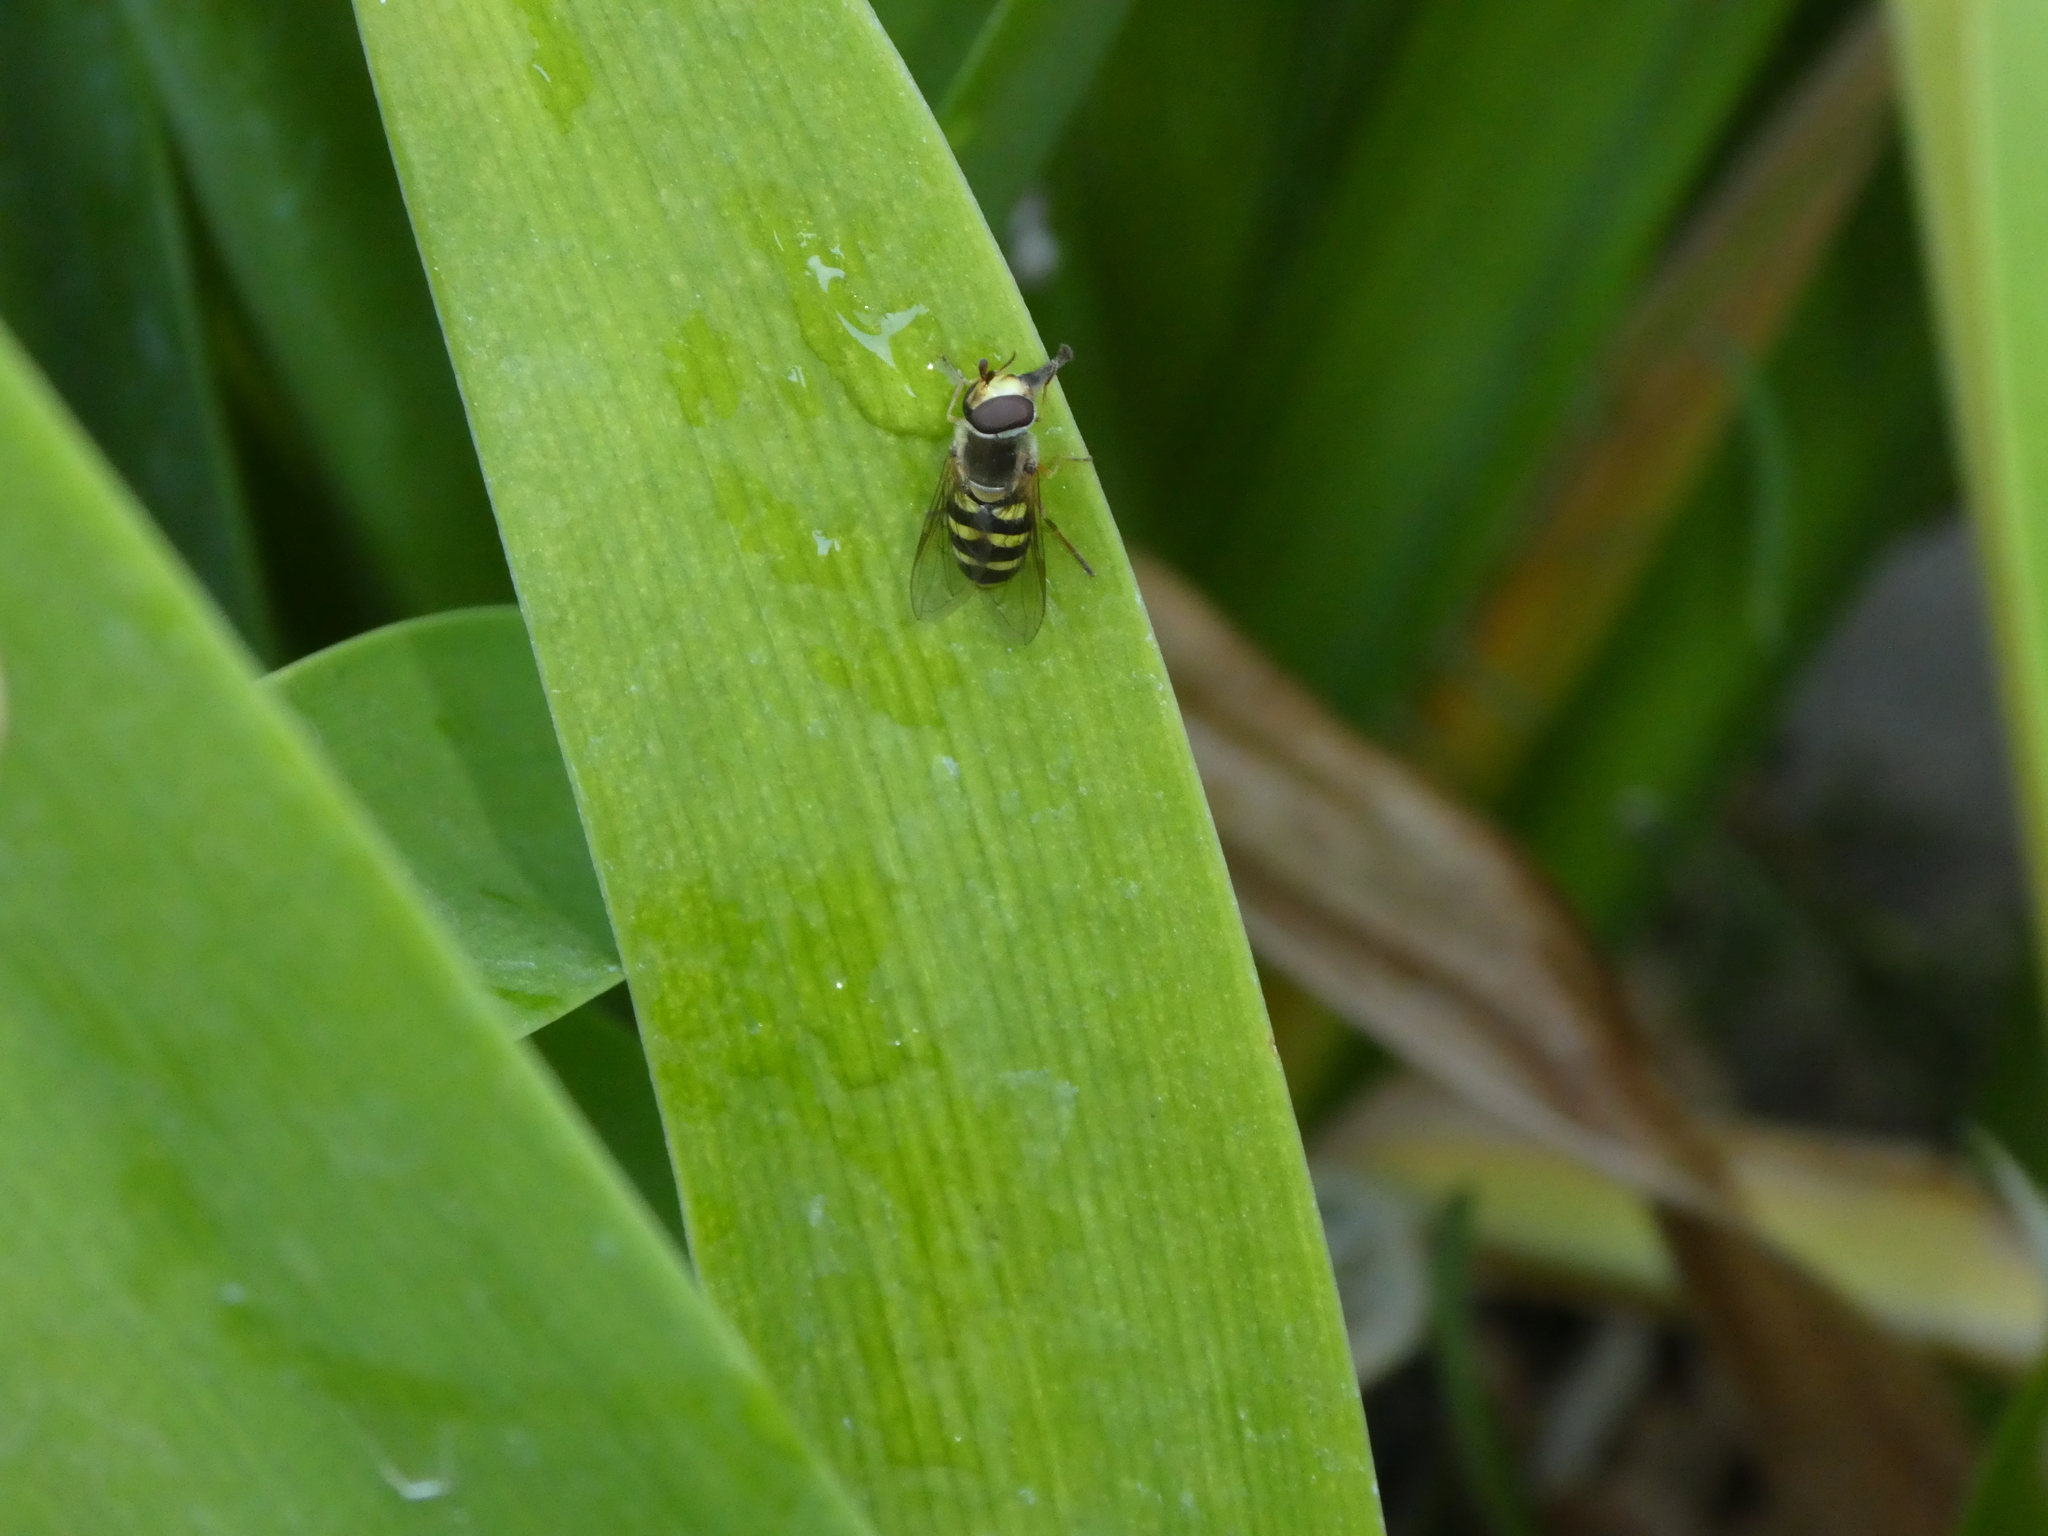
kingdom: Animalia
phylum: Arthropoda
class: Insecta
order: Diptera
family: Syrphidae
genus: Eupeodes
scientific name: Eupeodes fumipennis
